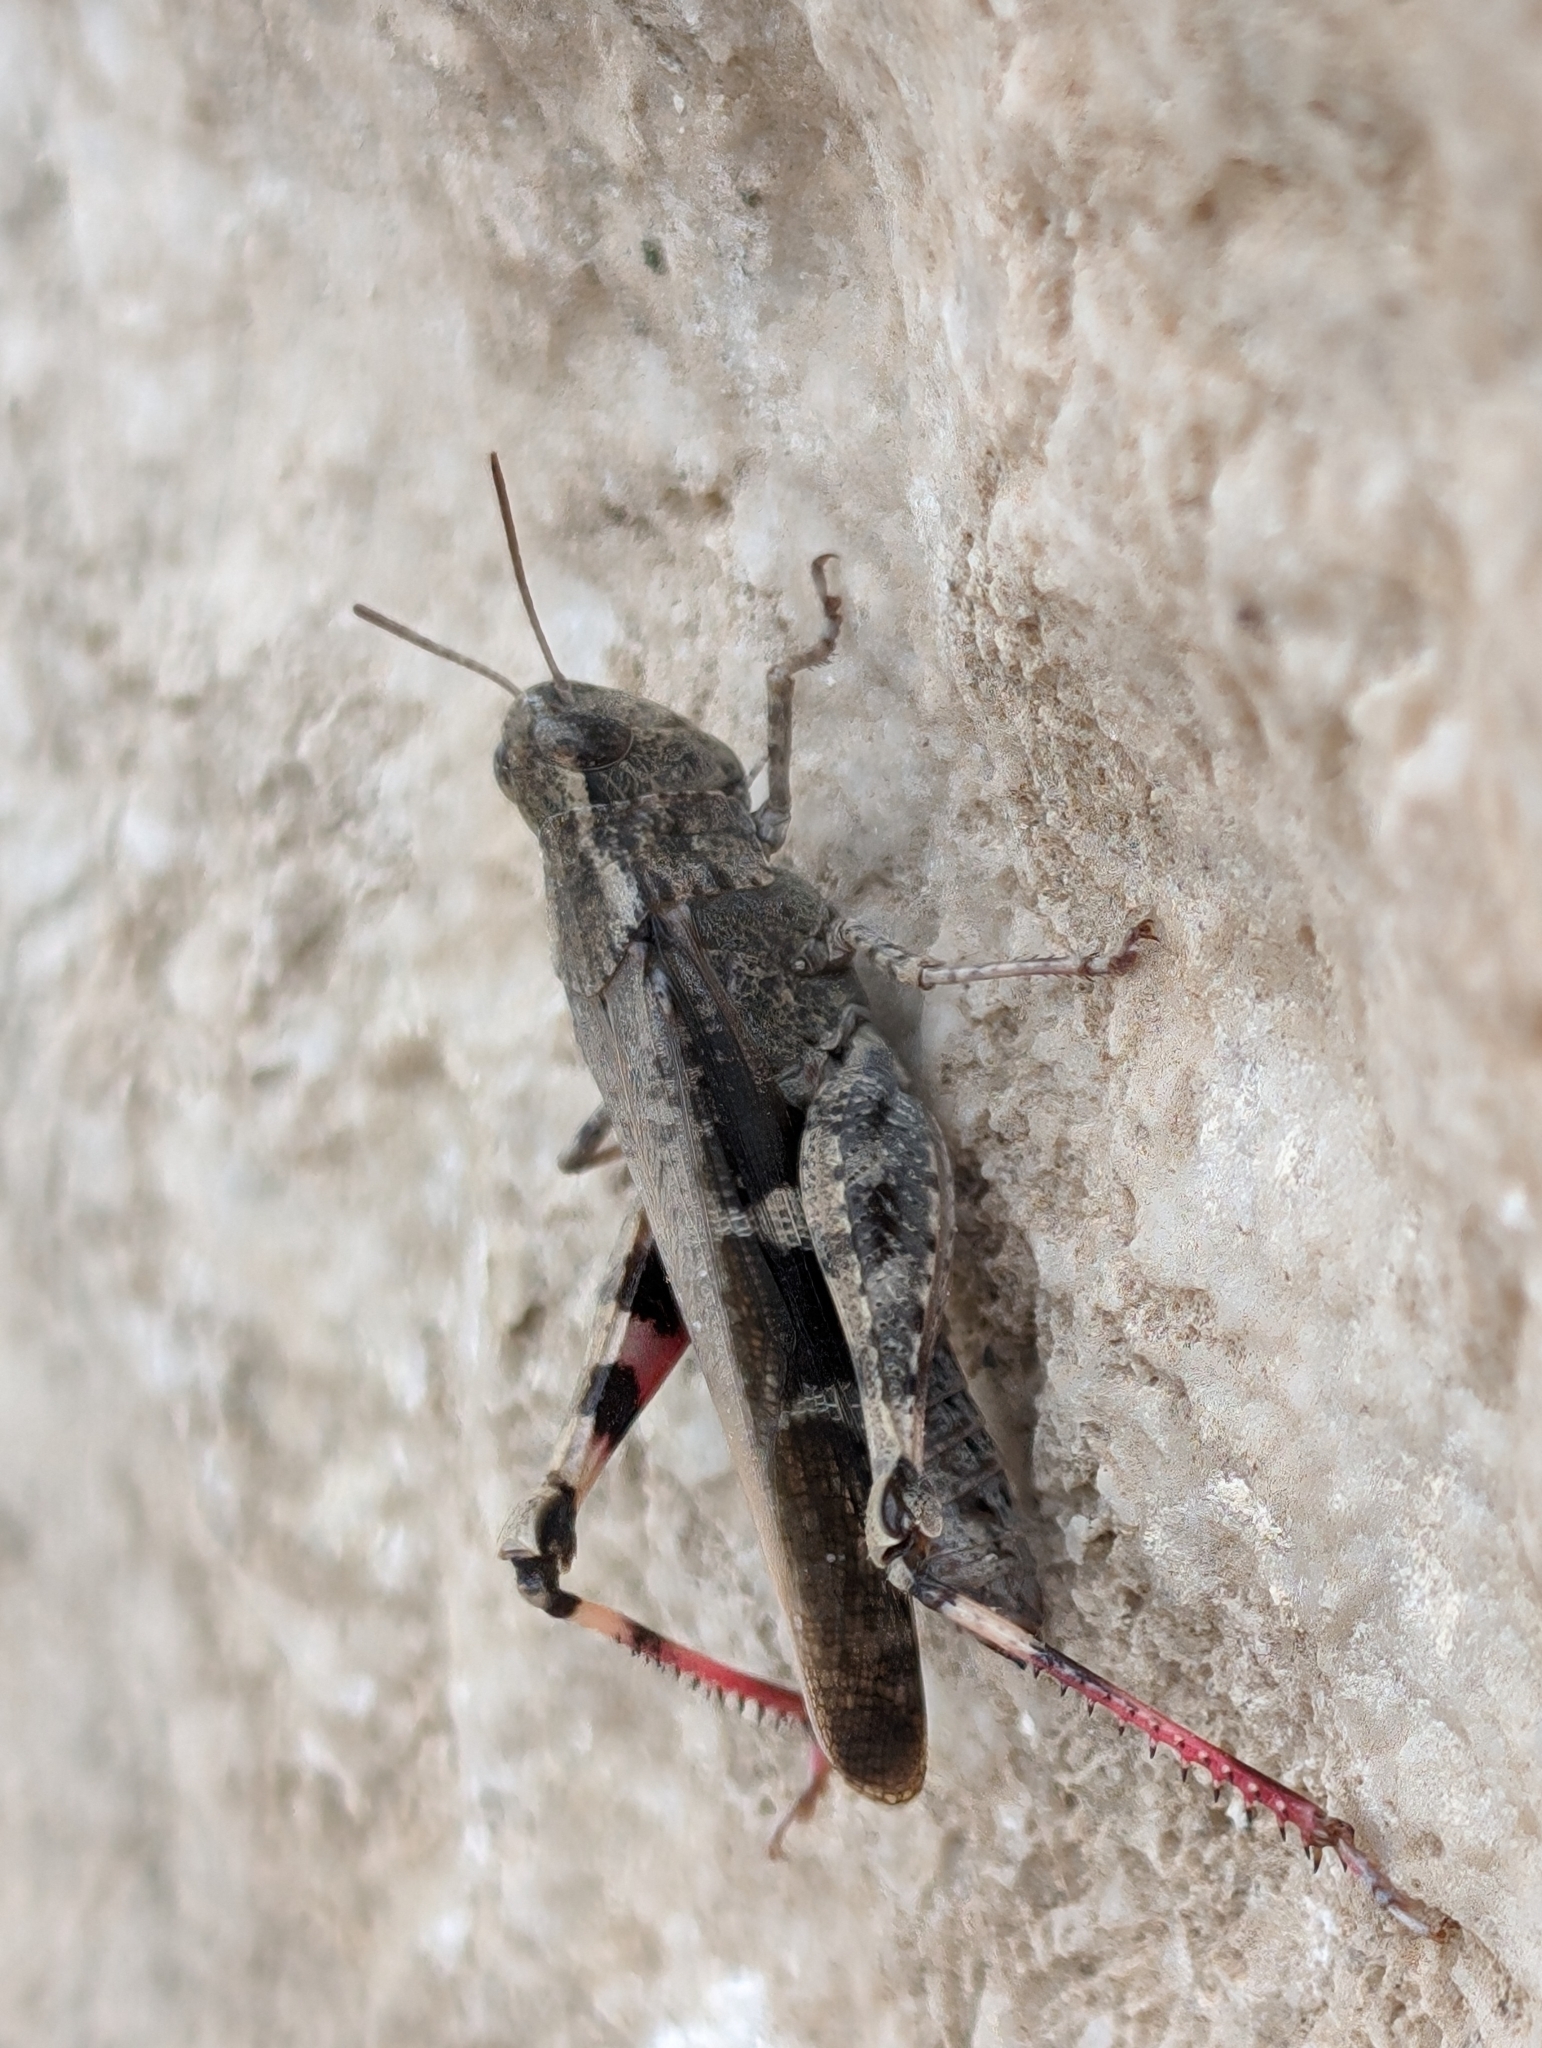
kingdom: Animalia
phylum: Arthropoda
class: Insecta
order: Orthoptera
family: Acrididae
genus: Aiolopus
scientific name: Aiolopus strepens
